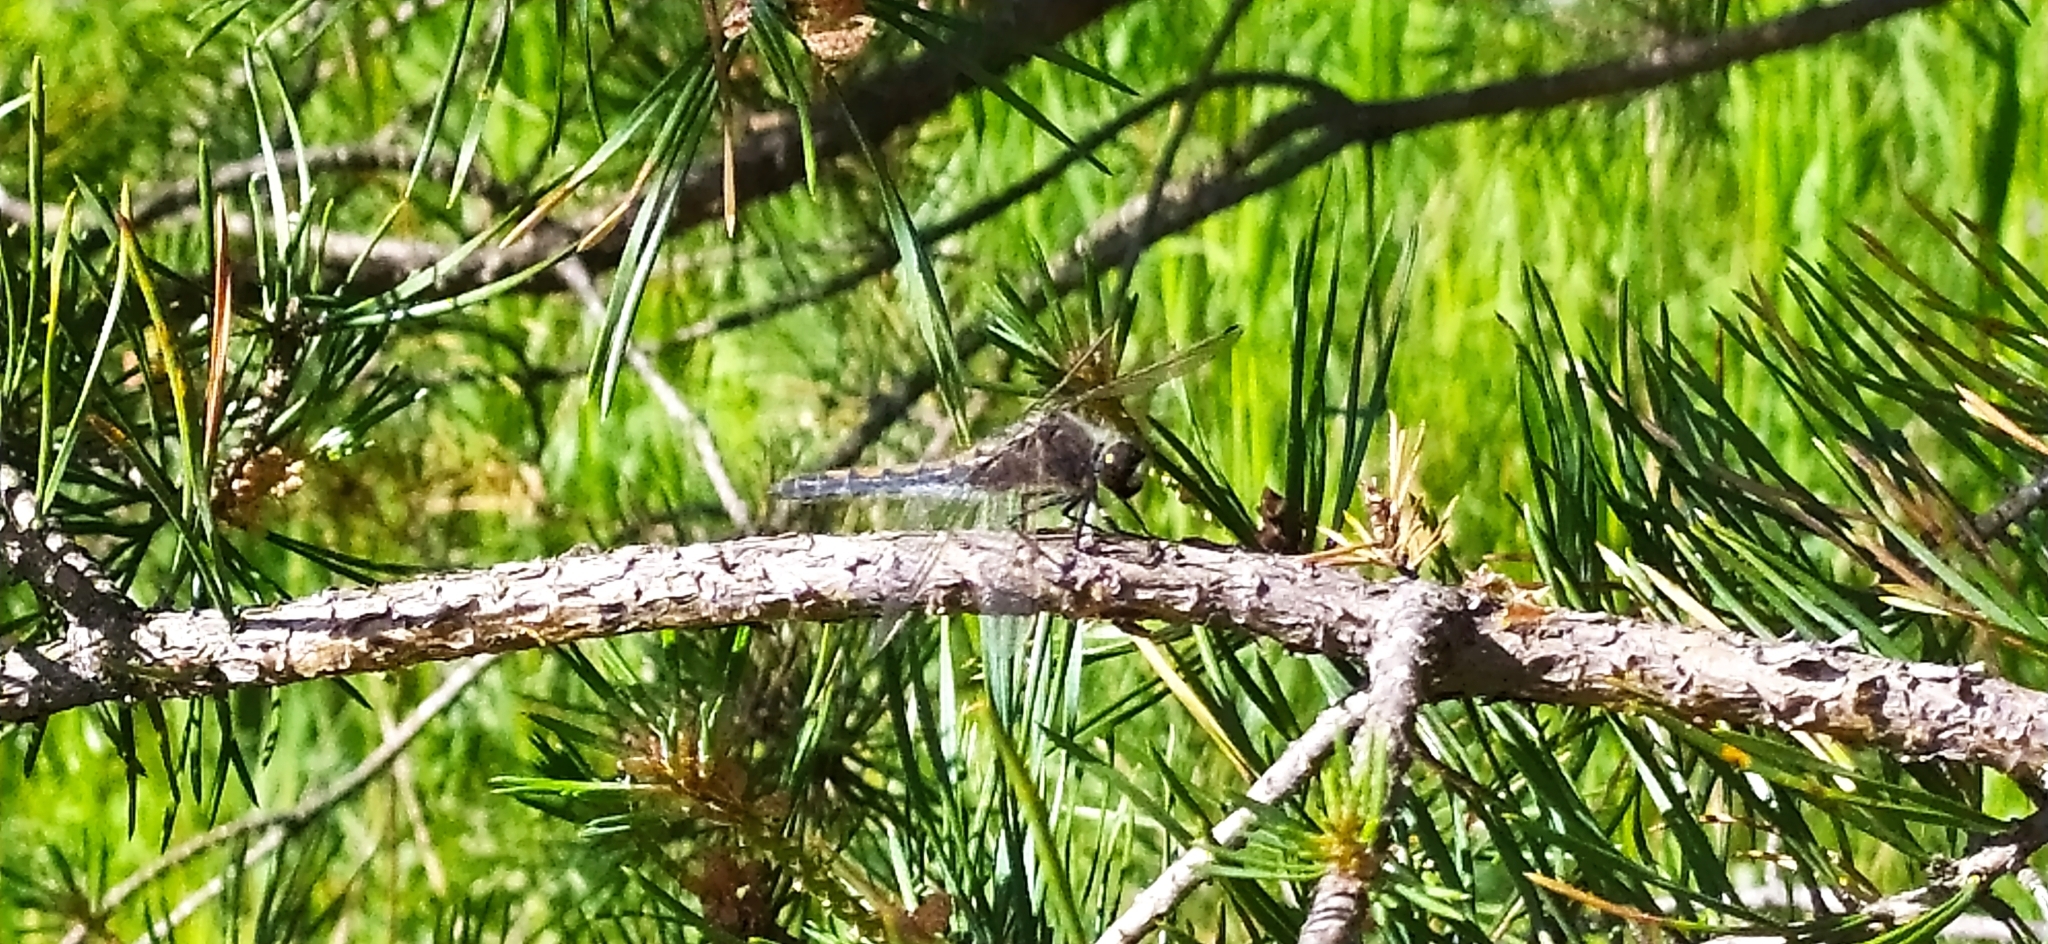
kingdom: Animalia
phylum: Arthropoda
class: Insecta
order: Odonata
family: Libellulidae
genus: Leucorrhinia
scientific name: Leucorrhinia rubicunda
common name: Ruby whiteface
